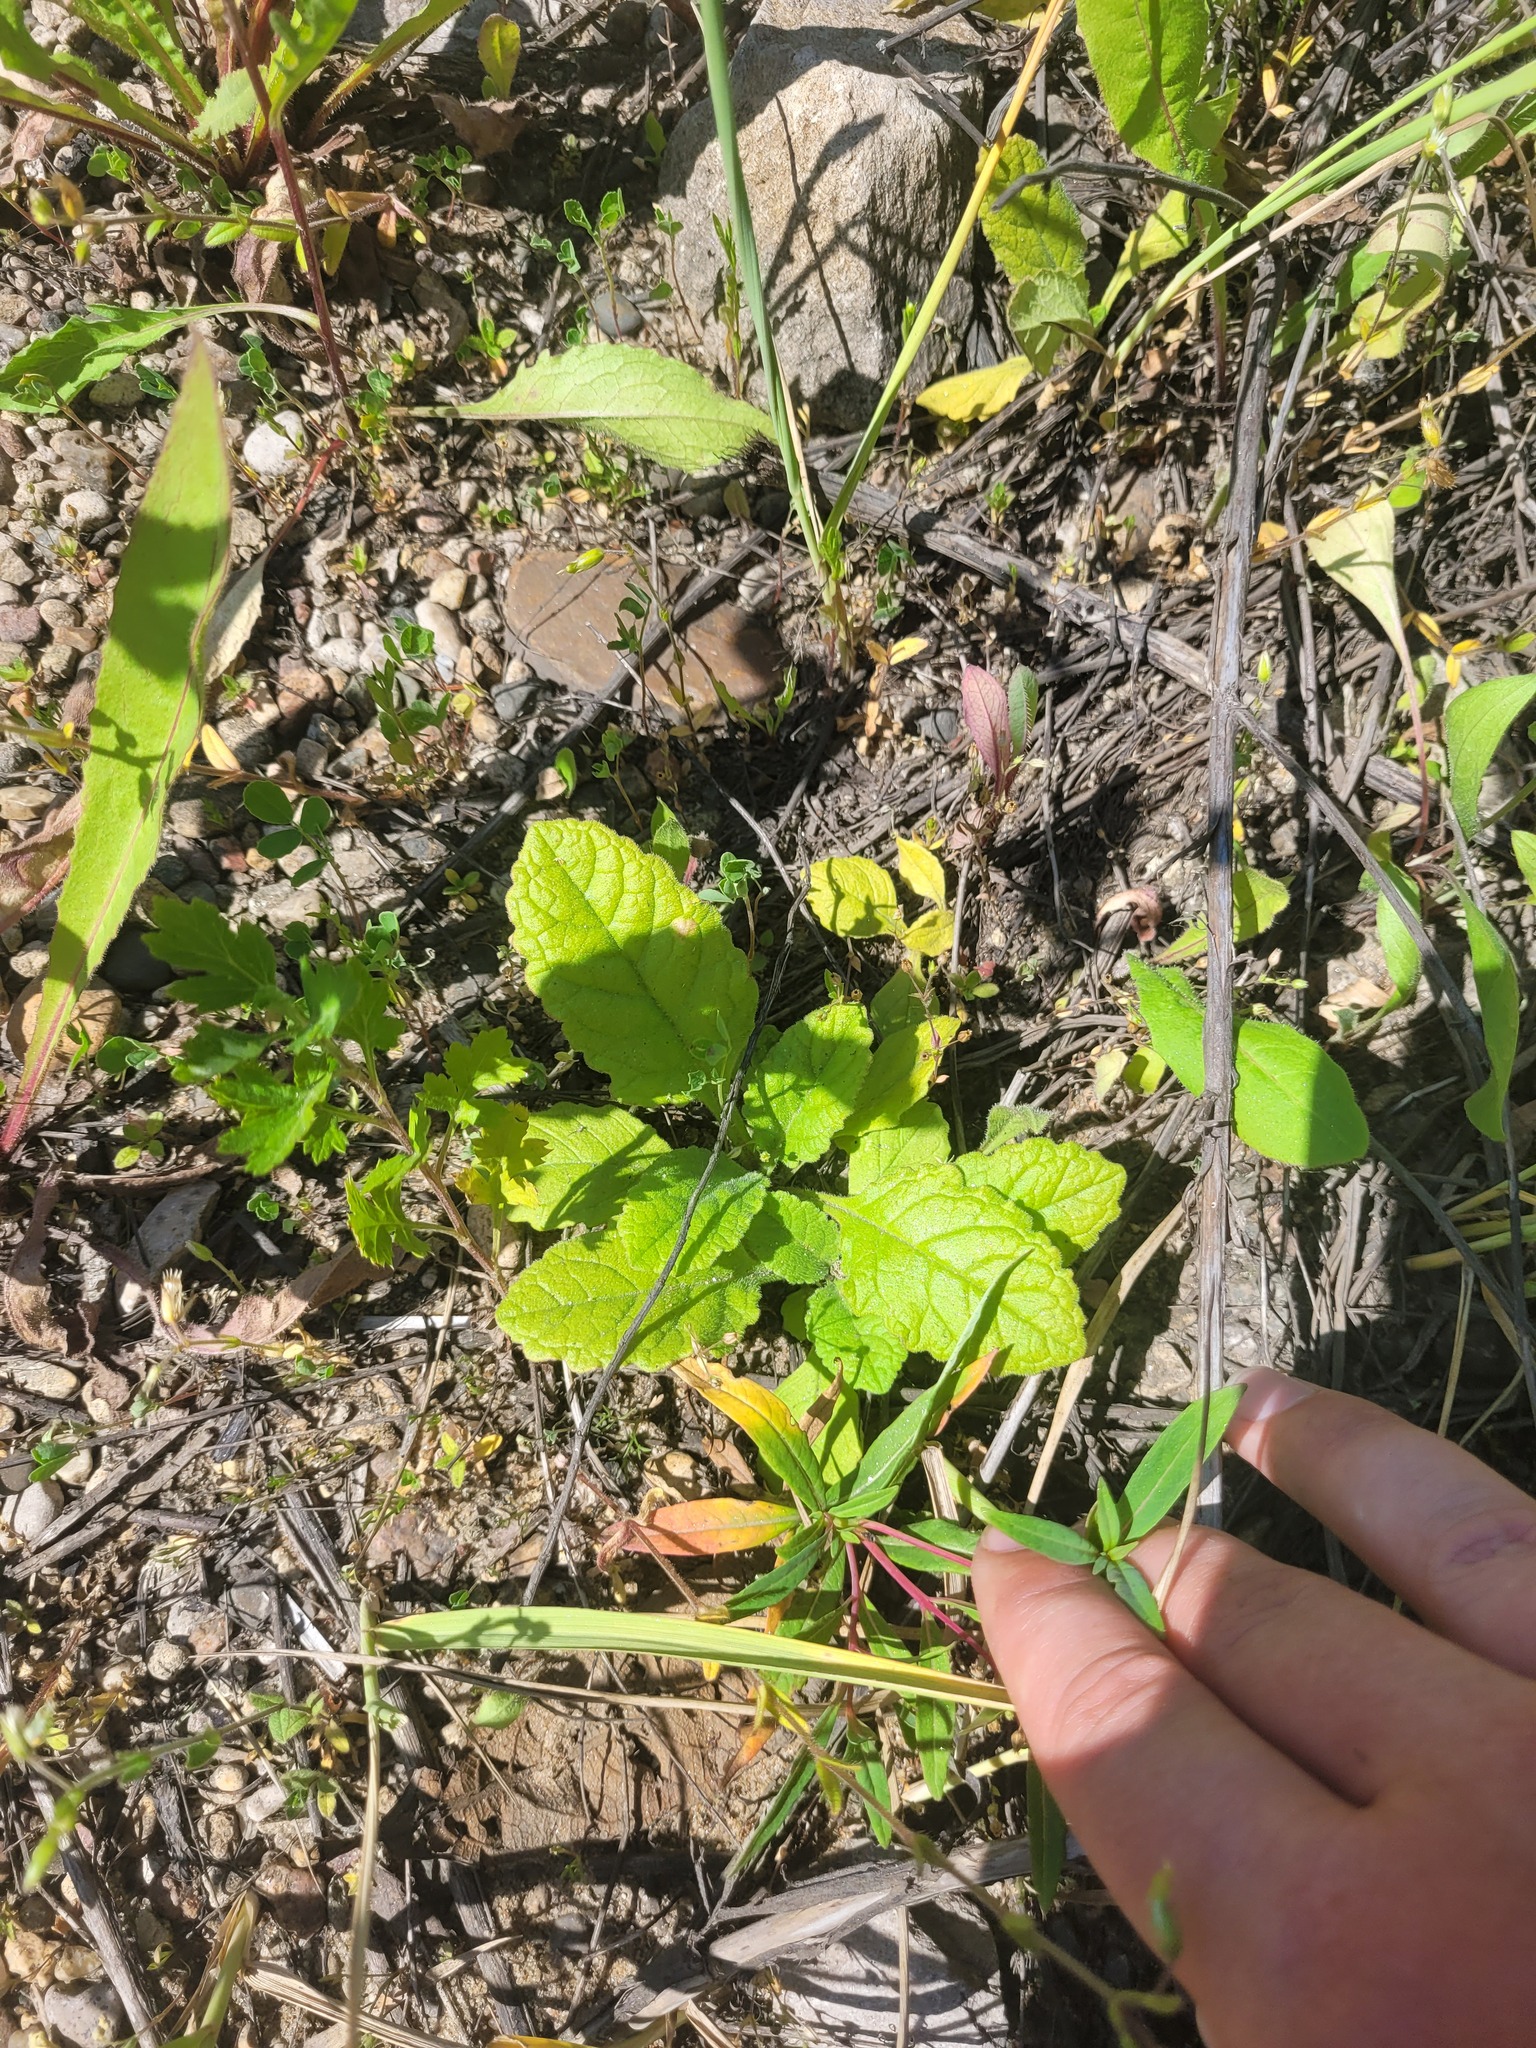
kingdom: Plantae
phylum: Tracheophyta
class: Magnoliopsida
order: Lamiales
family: Lamiaceae
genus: Ajuga
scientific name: Ajuga reptans
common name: Bugle
